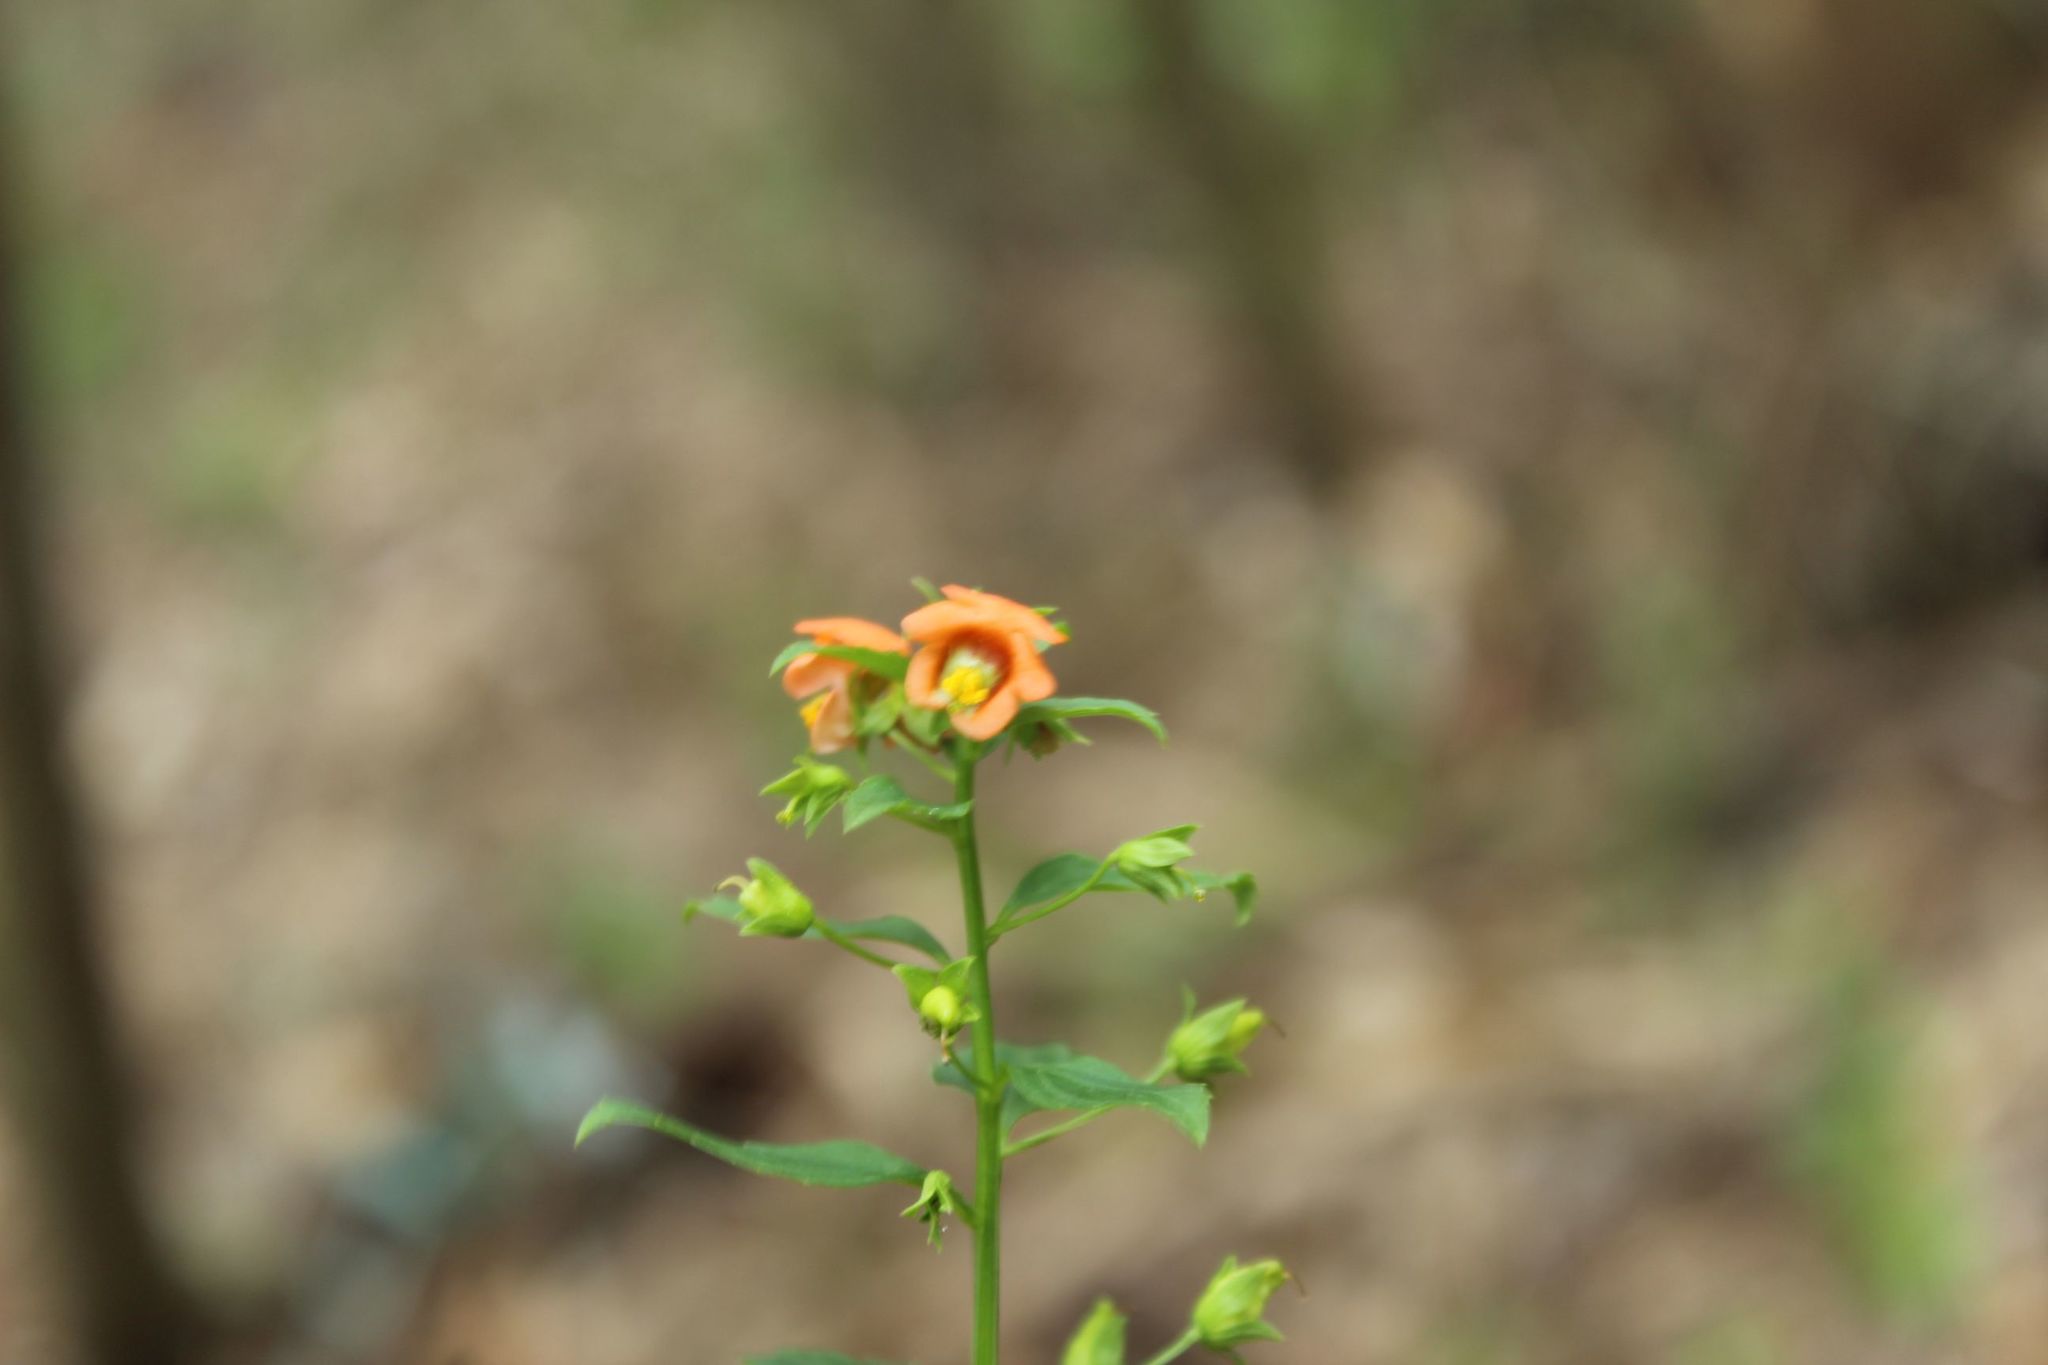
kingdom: Plantae
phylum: Tracheophyta
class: Magnoliopsida
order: Lamiales
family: Scrophulariaceae
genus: Alonsoa
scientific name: Alonsoa meridionalis
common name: Maskflower
